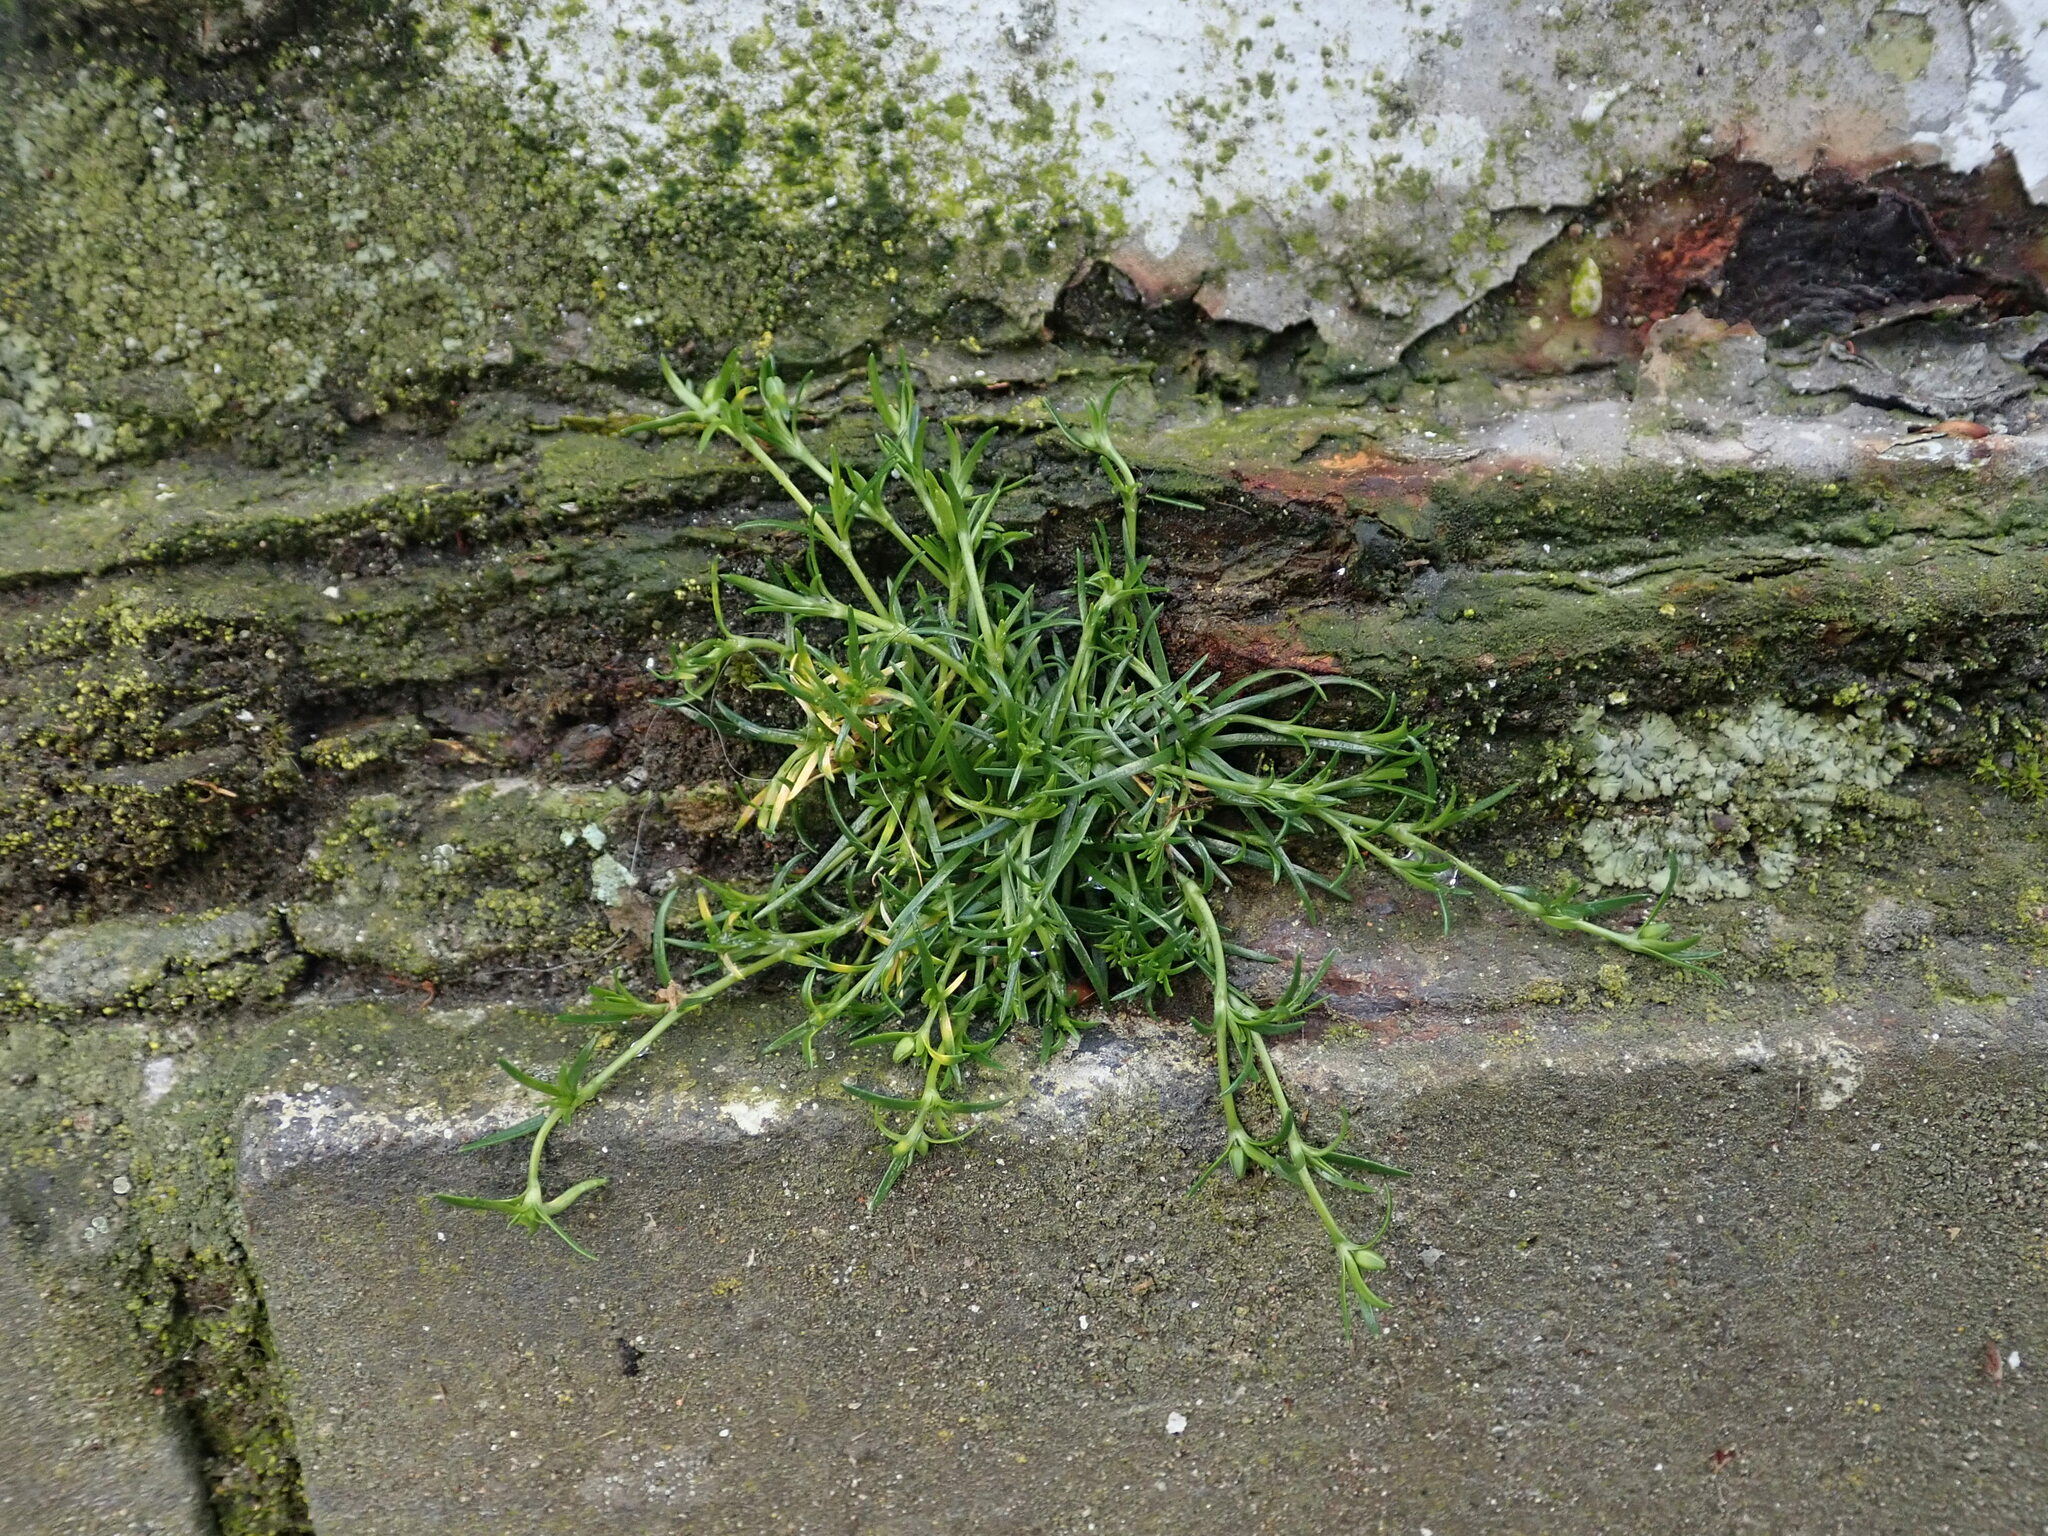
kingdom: Plantae
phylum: Tracheophyta
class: Magnoliopsida
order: Caryophyllales
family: Caryophyllaceae
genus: Sagina
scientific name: Sagina procumbens
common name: Procumbent pearlwort
